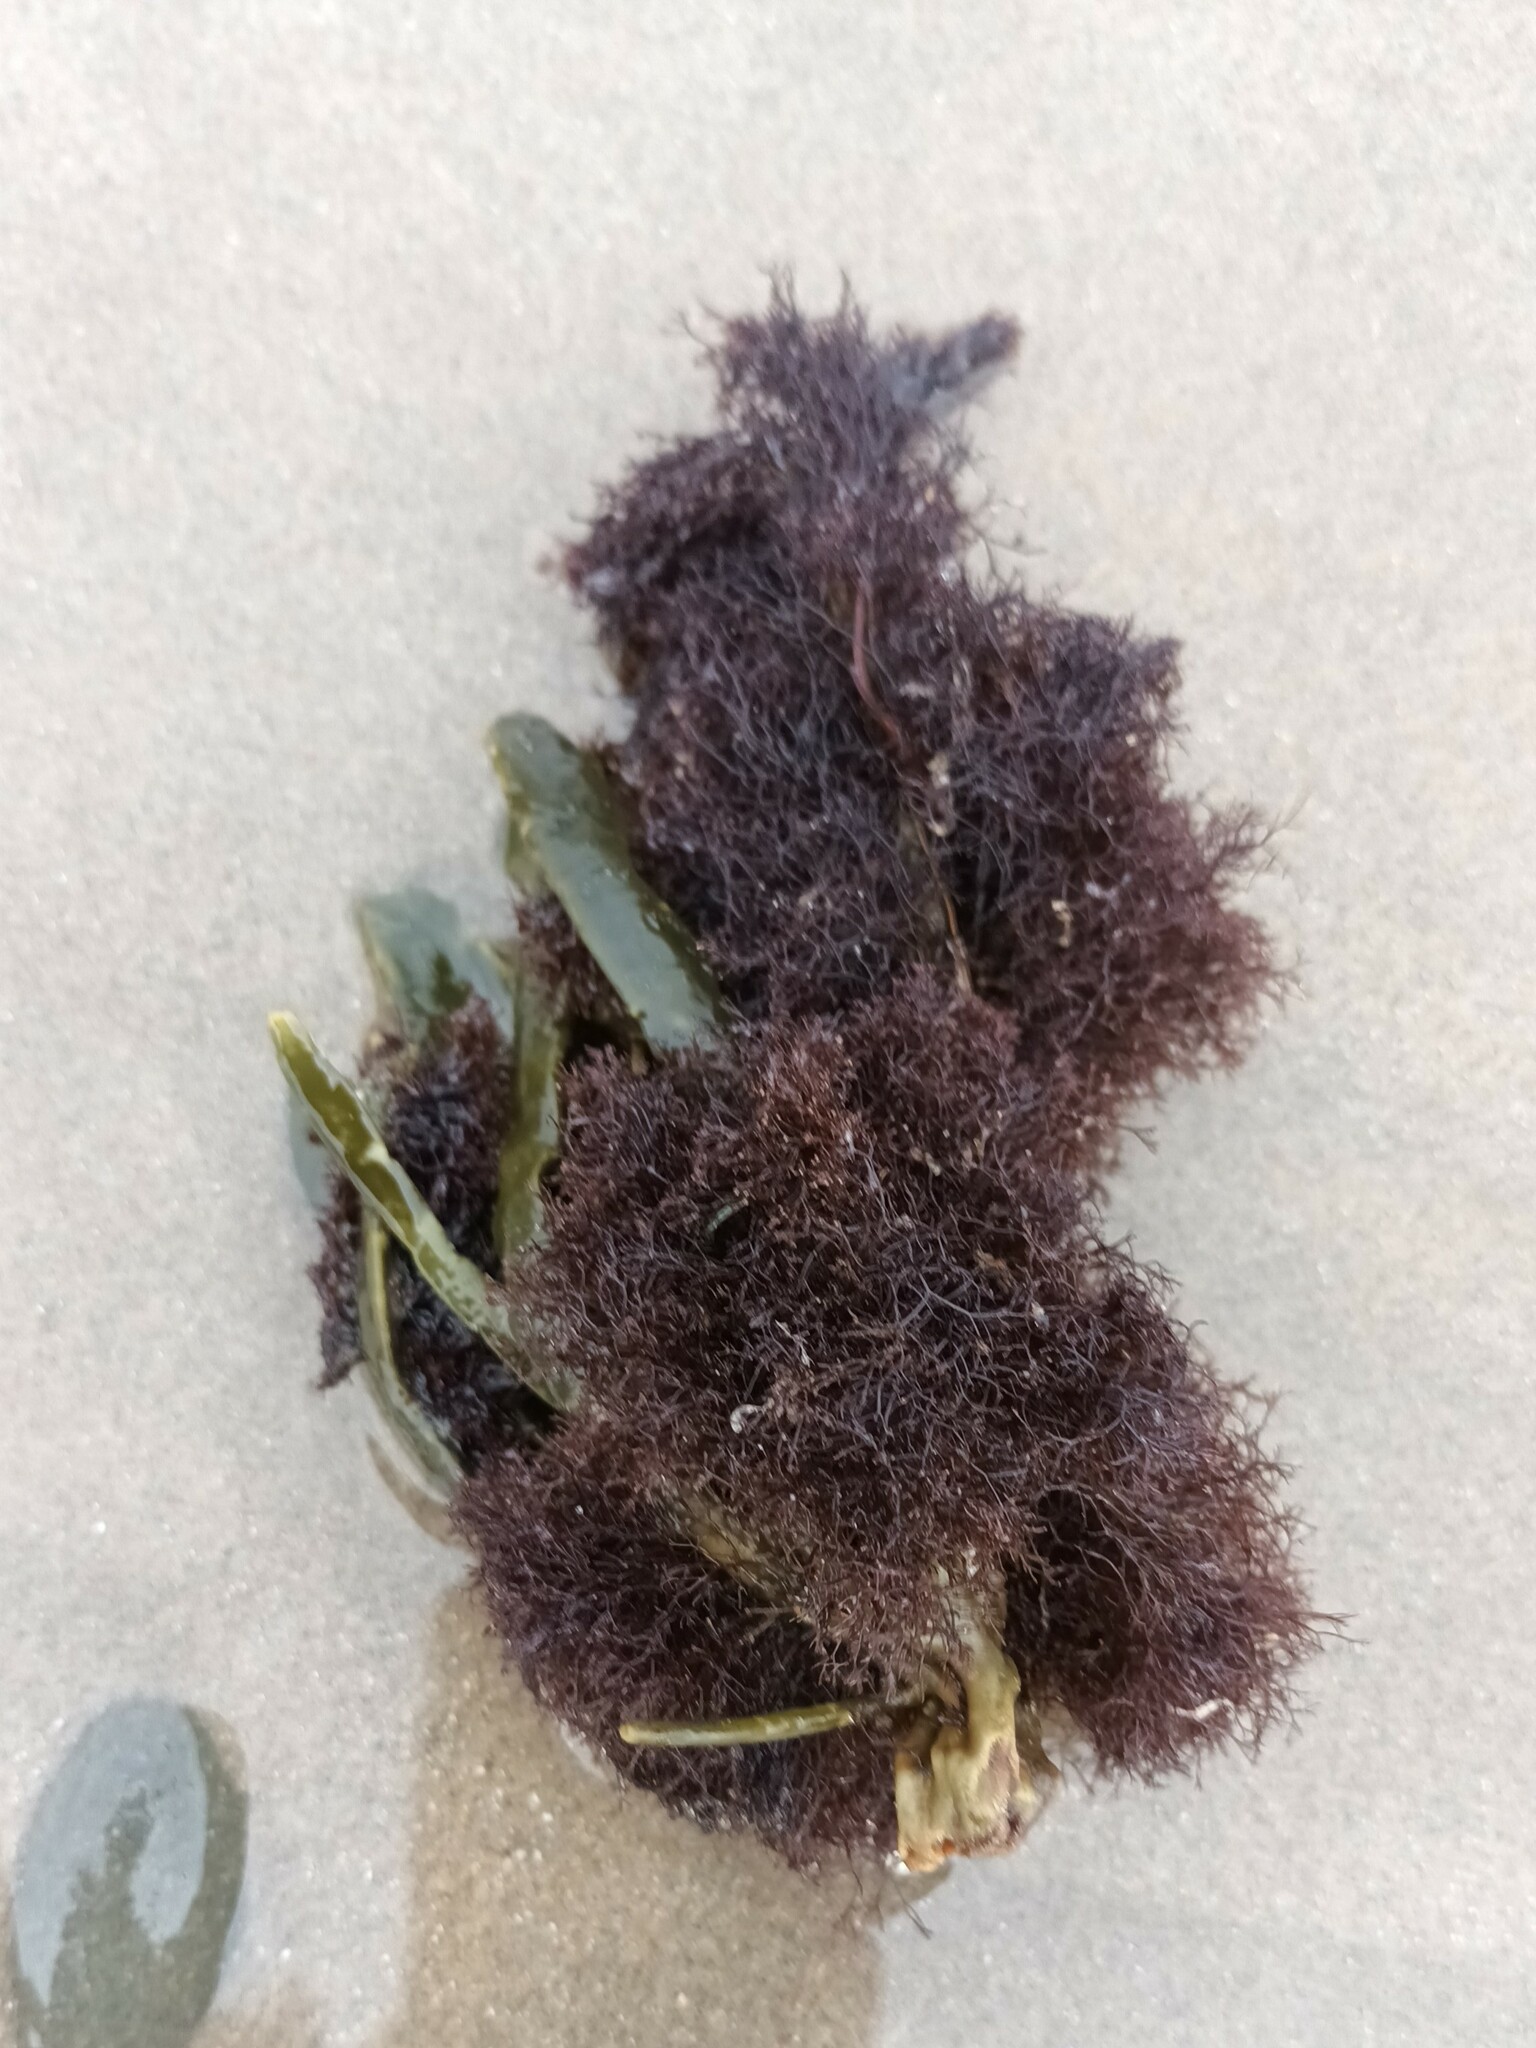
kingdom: Plantae
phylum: Rhodophyta
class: Florideophyceae
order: Ceramiales
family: Rhodomelaceae
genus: Vertebrata
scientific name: Vertebrata lanosa
